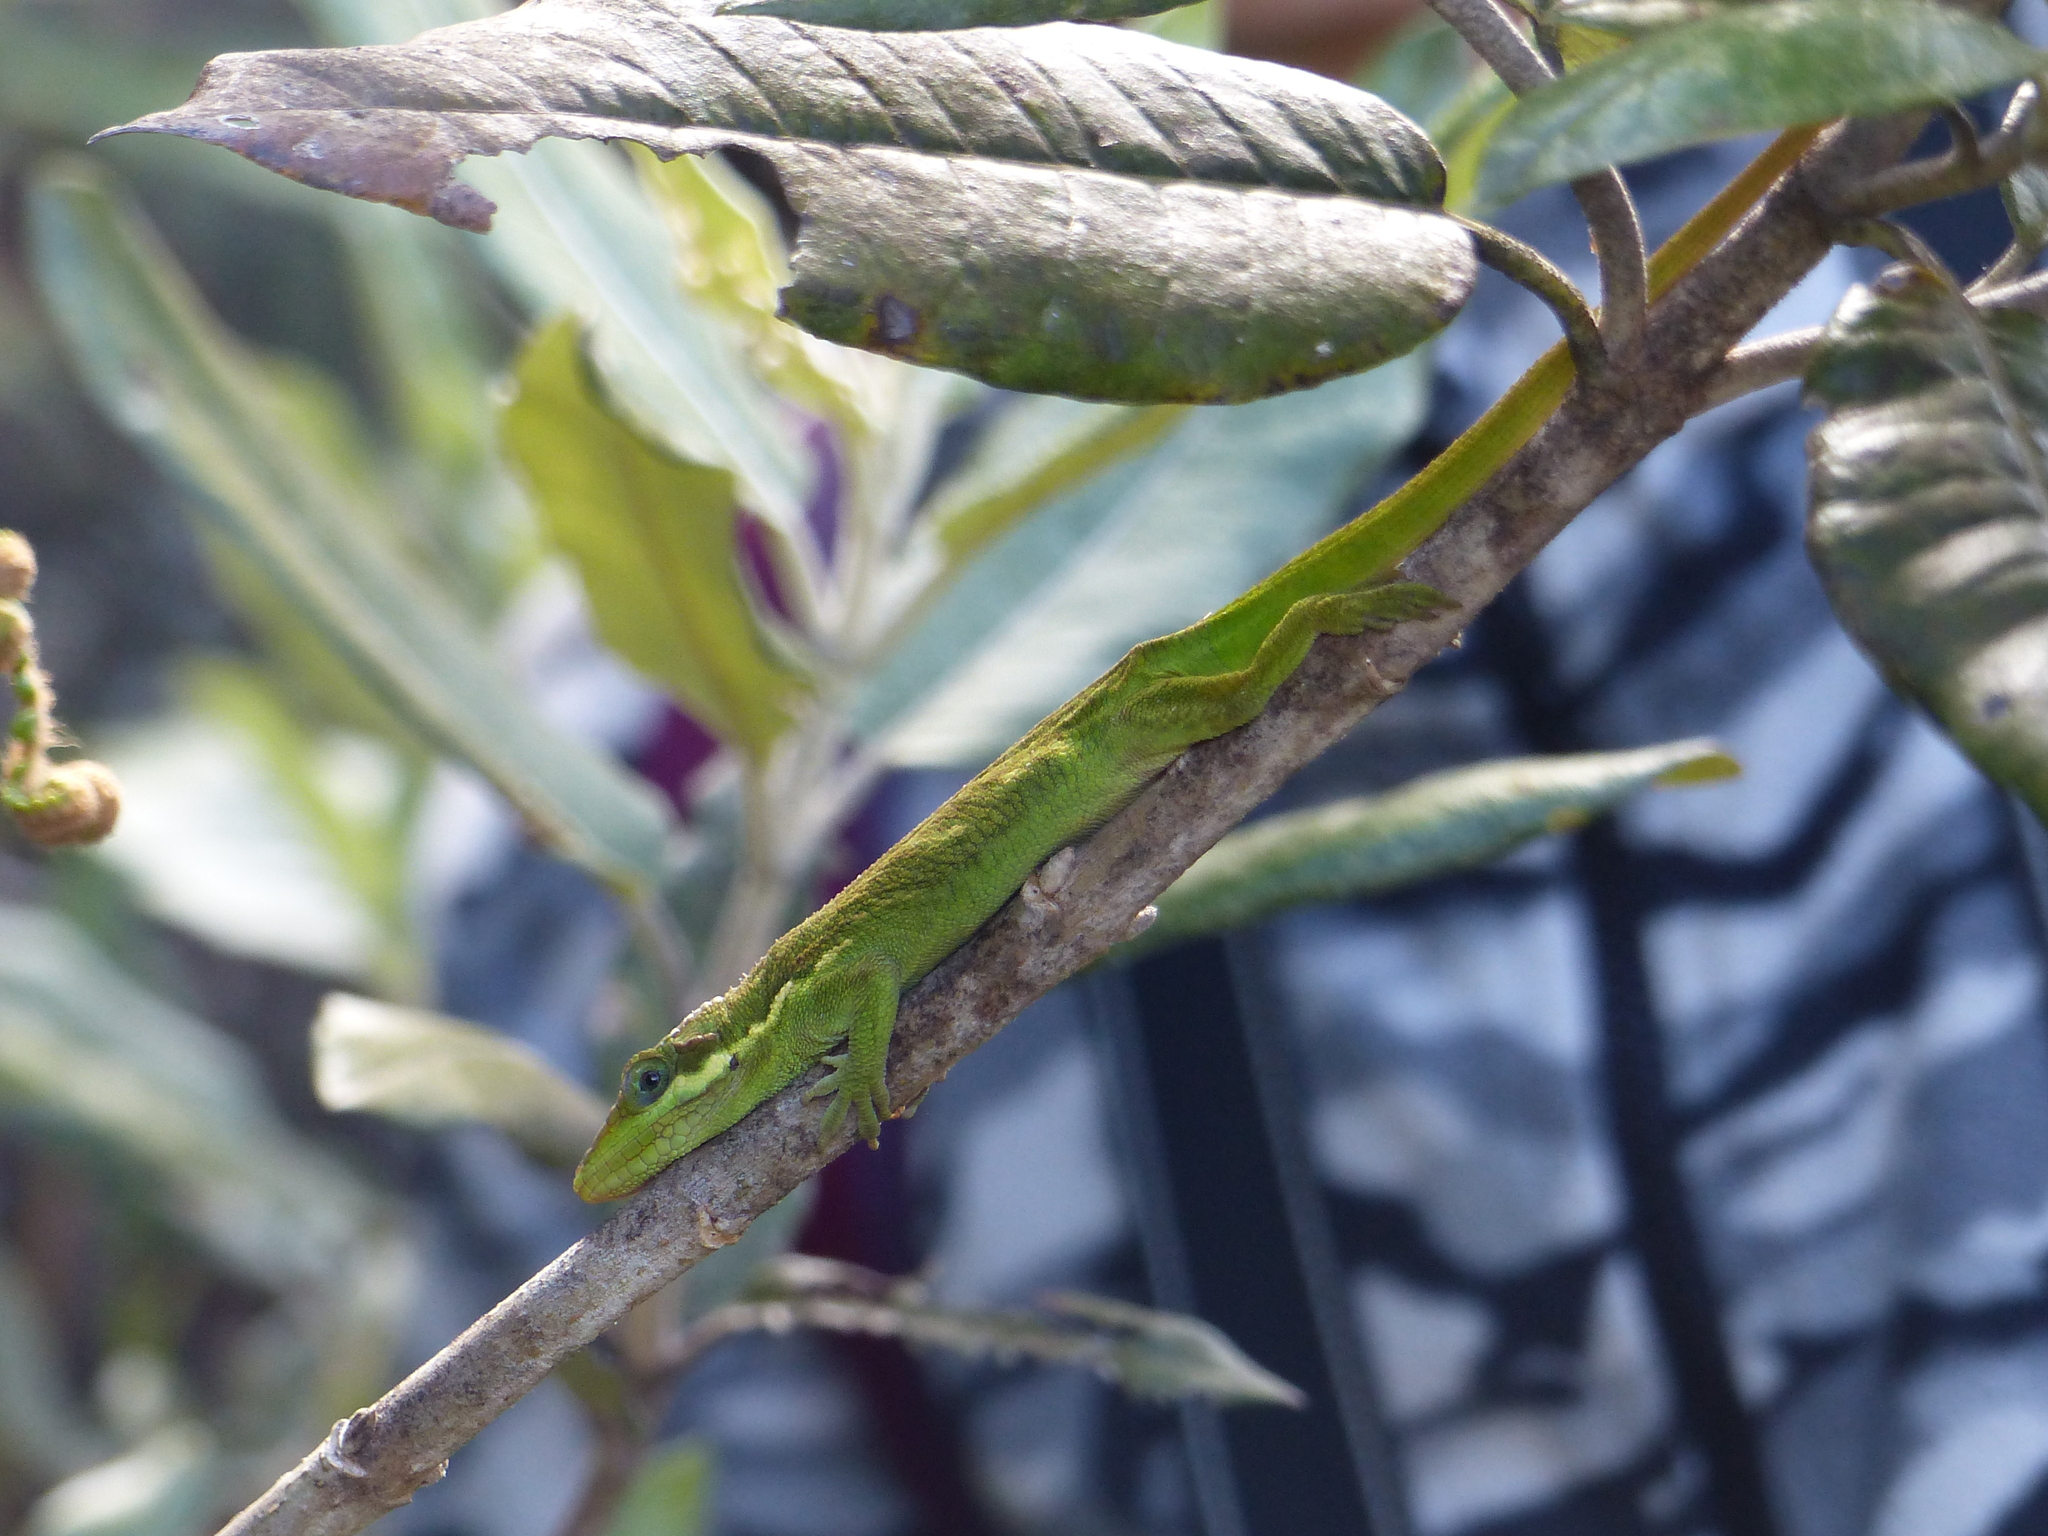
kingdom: Animalia
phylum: Chordata
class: Squamata
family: Dactyloidae
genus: Anolis
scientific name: Anolis heterodermus
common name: Flat andes anole
